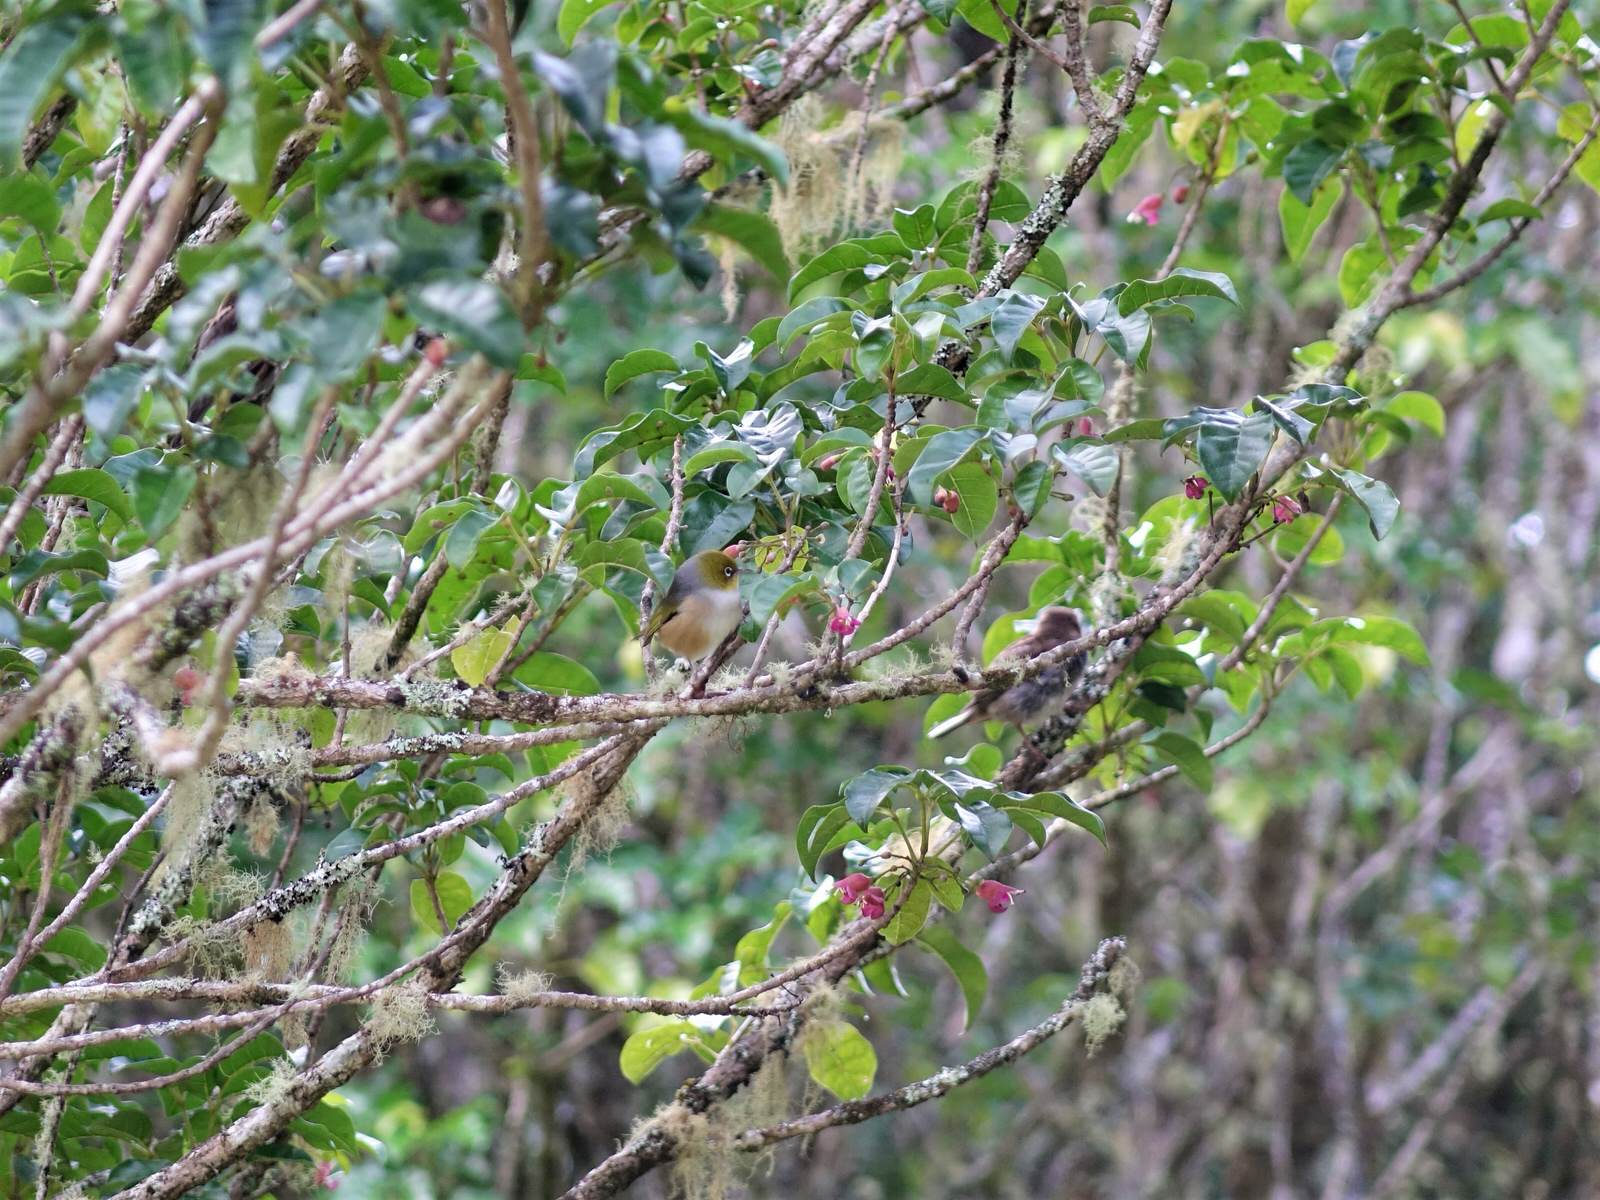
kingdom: Animalia
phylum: Chordata
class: Aves
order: Passeriformes
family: Zosteropidae
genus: Zosterops
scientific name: Zosterops lateralis
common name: Silvereye
